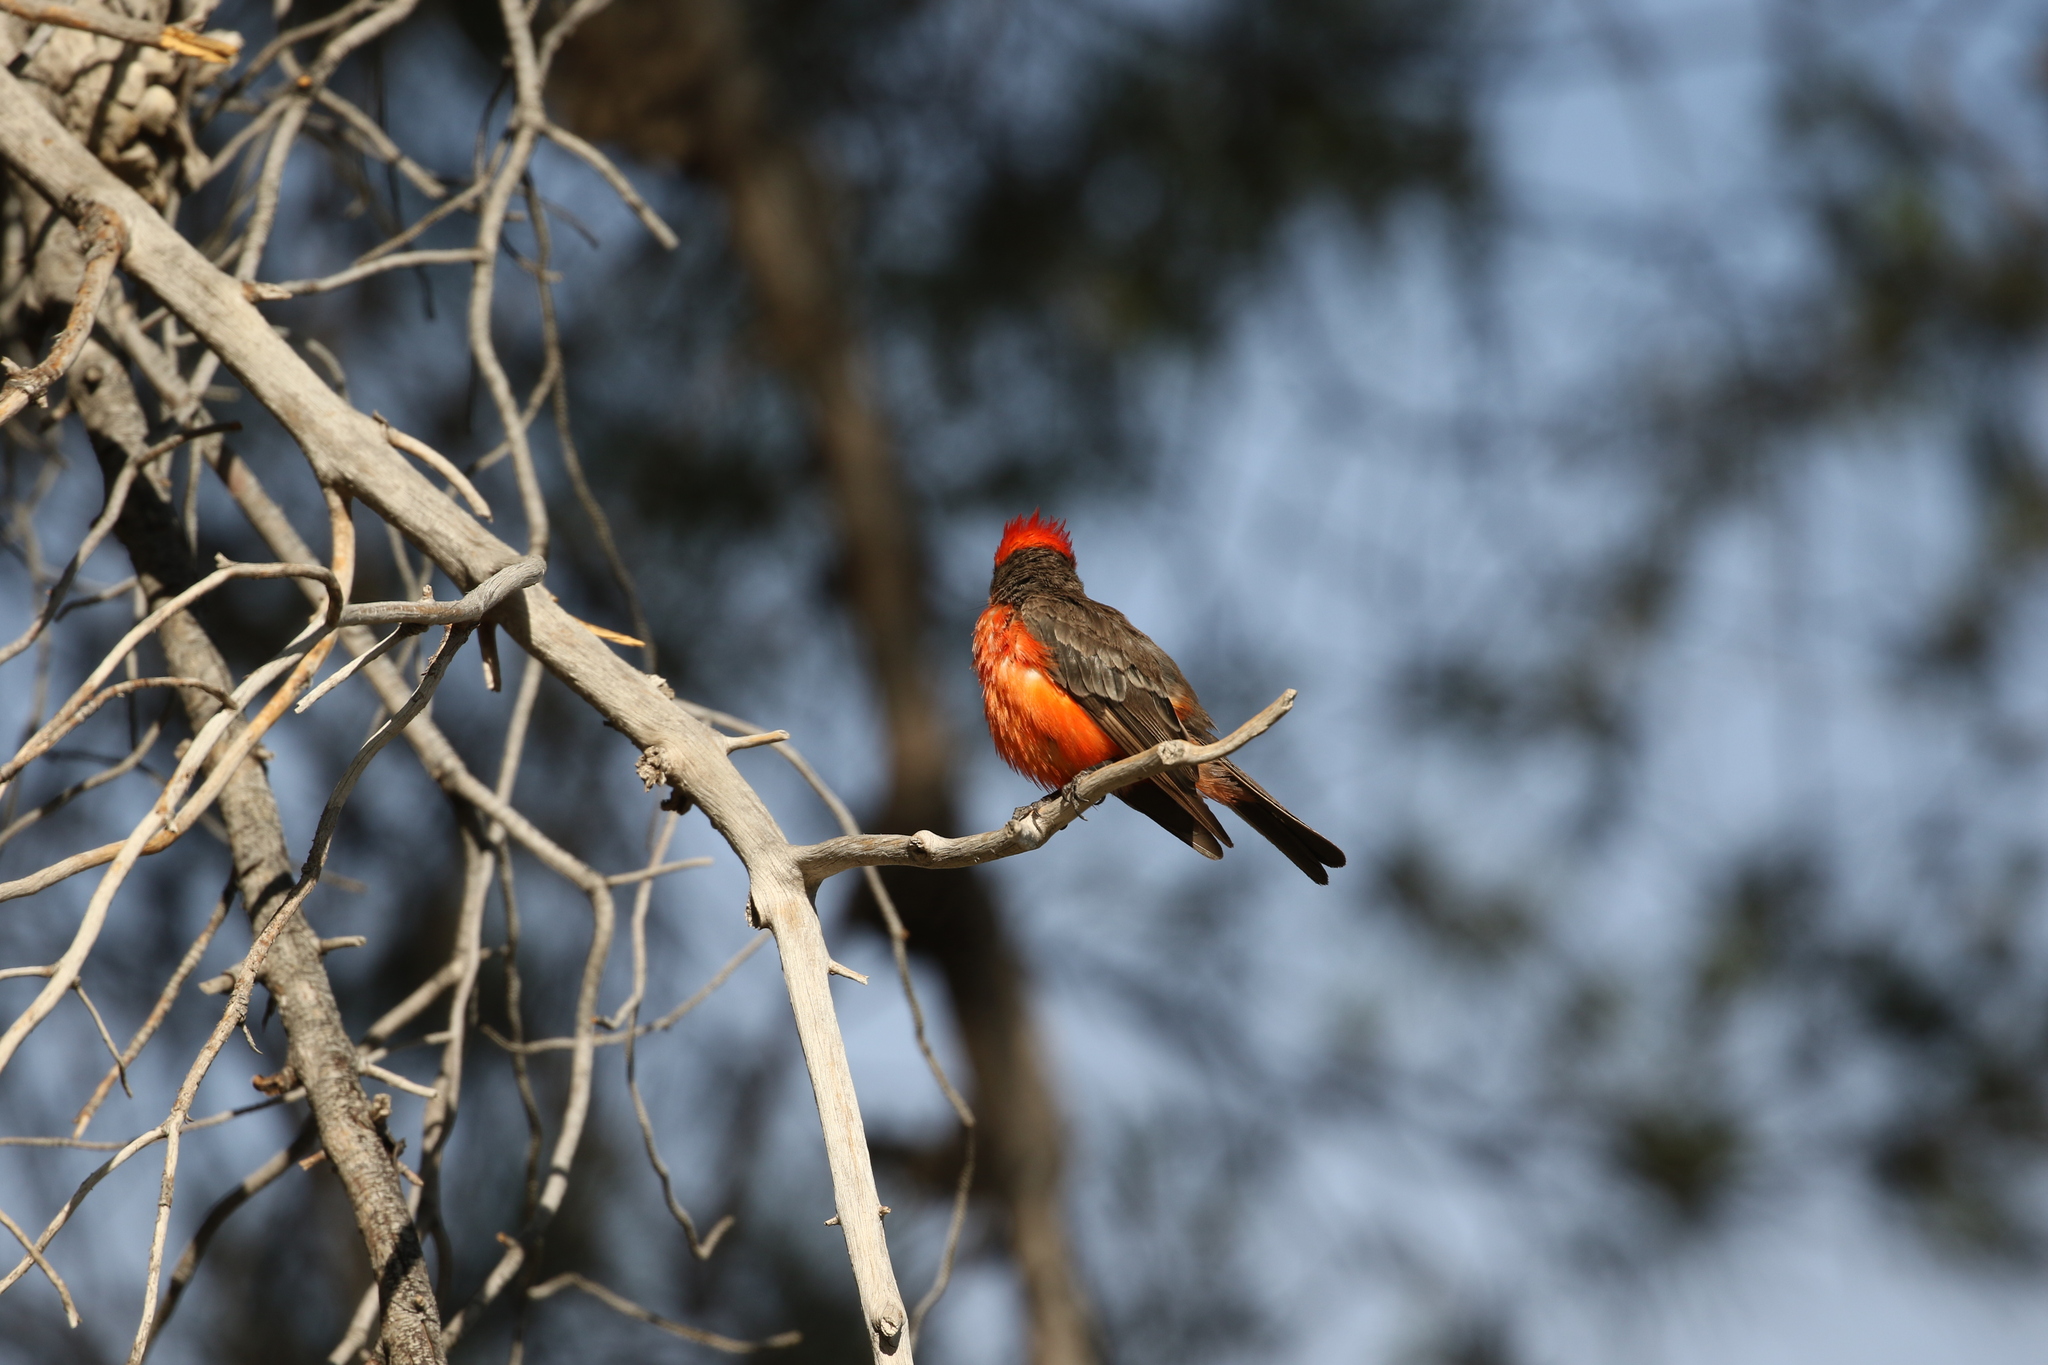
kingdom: Animalia
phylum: Chordata
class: Aves
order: Passeriformes
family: Tyrannidae
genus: Pyrocephalus
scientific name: Pyrocephalus rubinus
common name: Vermilion flycatcher
